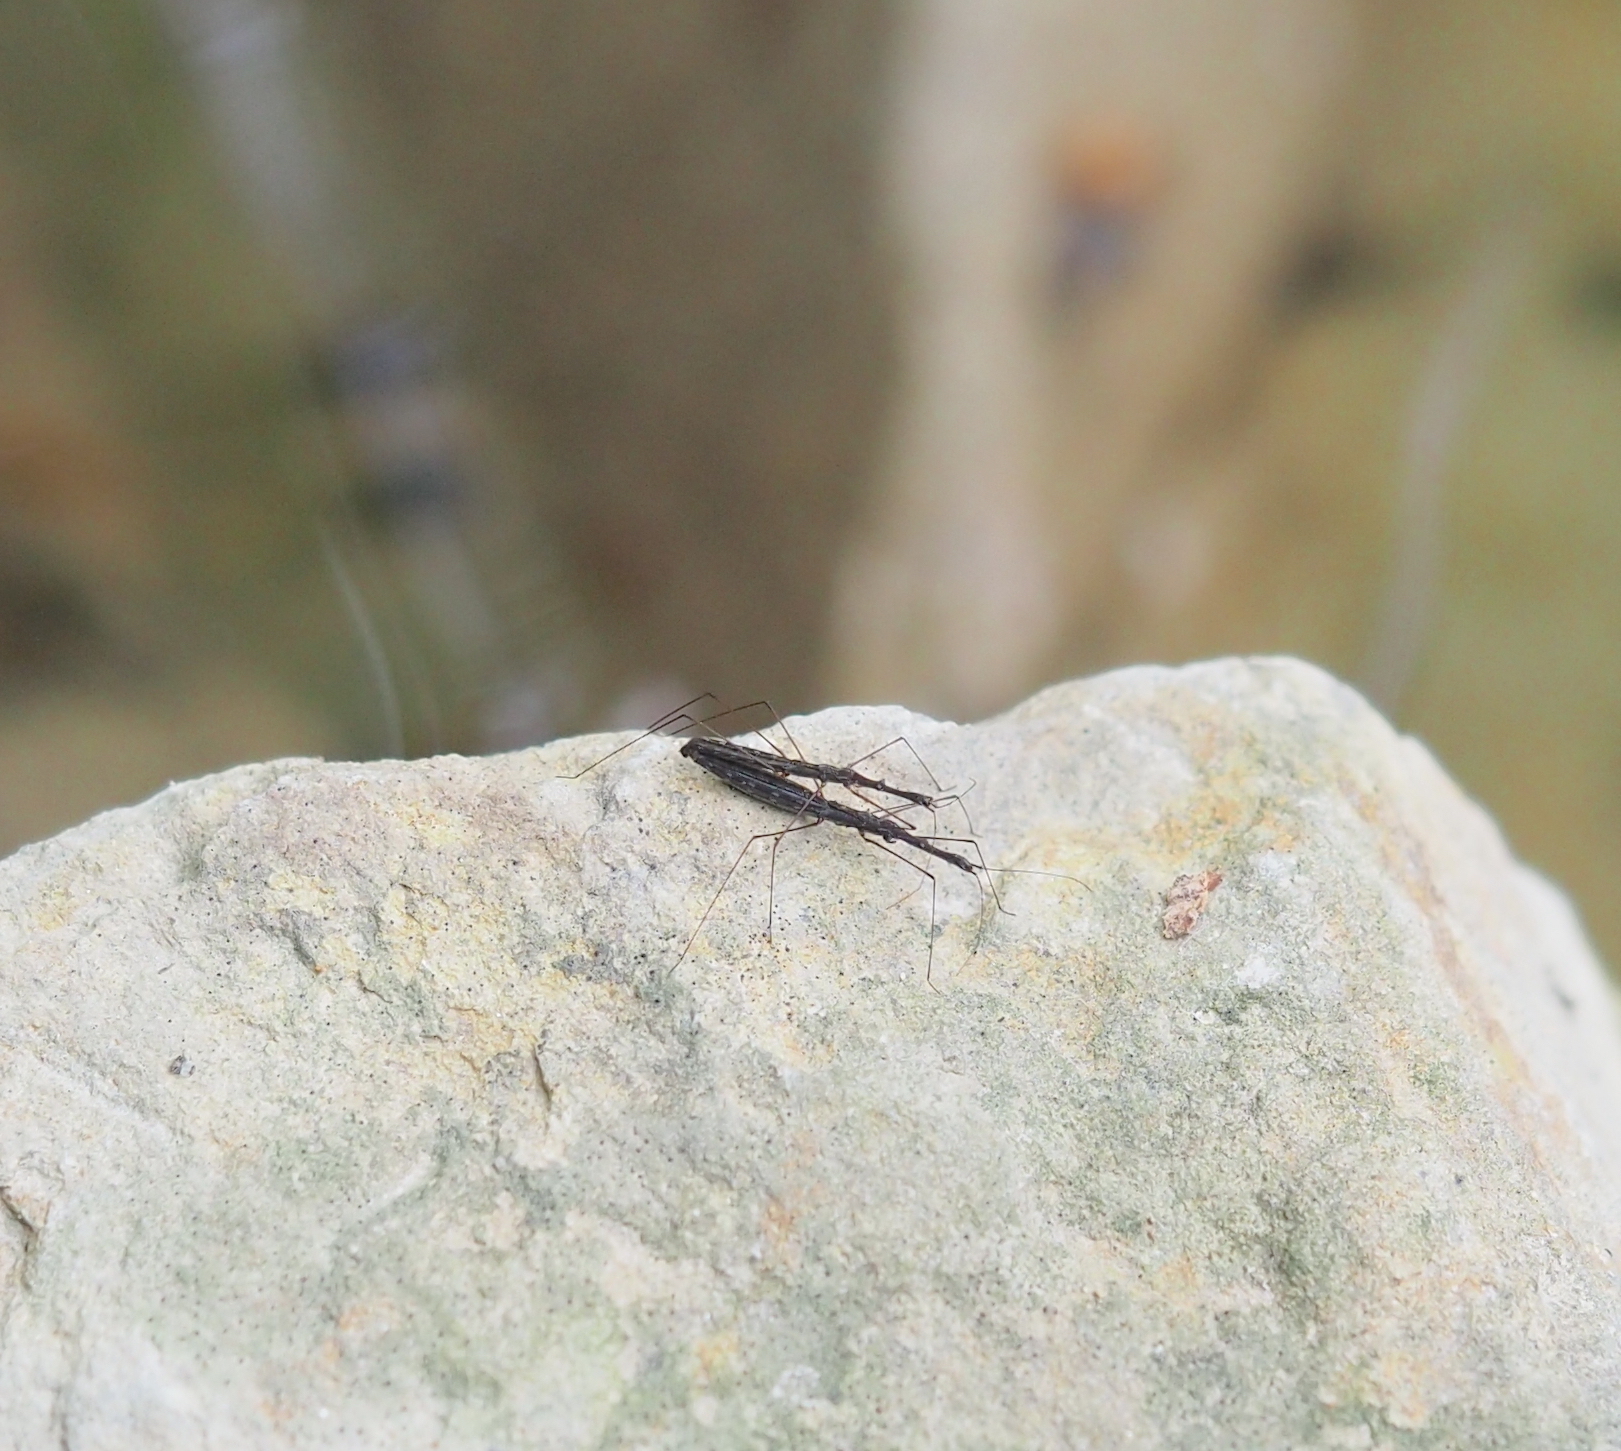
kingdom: Animalia
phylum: Arthropoda
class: Insecta
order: Hemiptera
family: Hydrometridae
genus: Hydrometra
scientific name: Hydrometra stagnorum
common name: Water measurer
